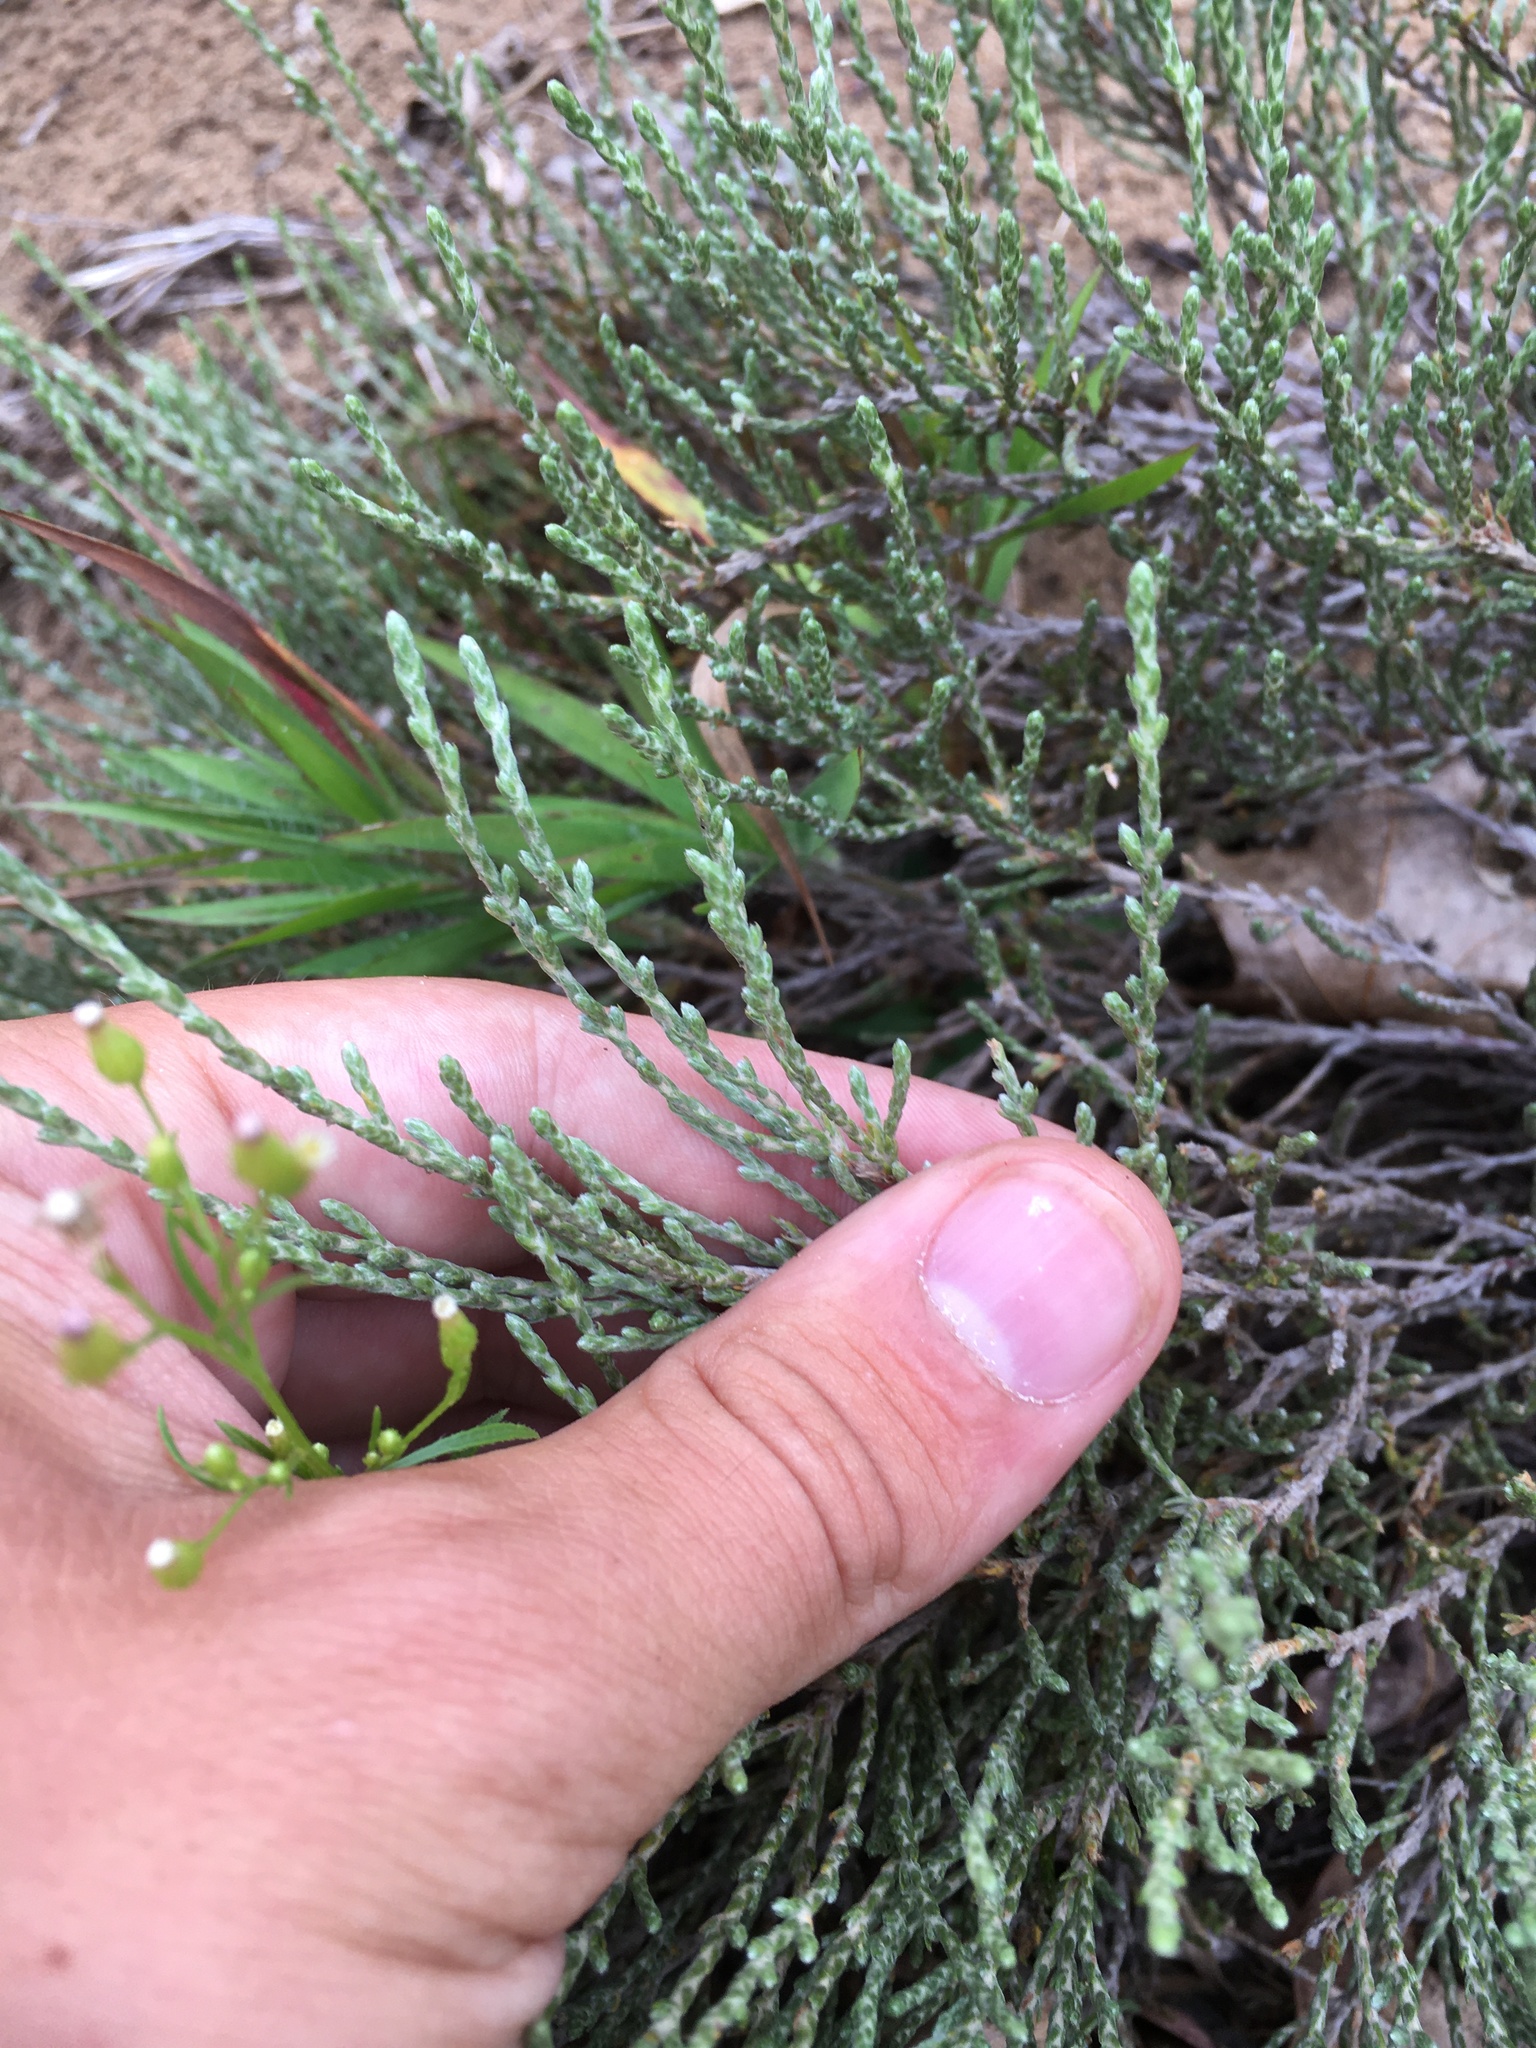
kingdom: Plantae
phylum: Tracheophyta
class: Magnoliopsida
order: Malvales
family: Cistaceae
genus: Hudsonia
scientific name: Hudsonia tomentosa
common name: Beach-heath
